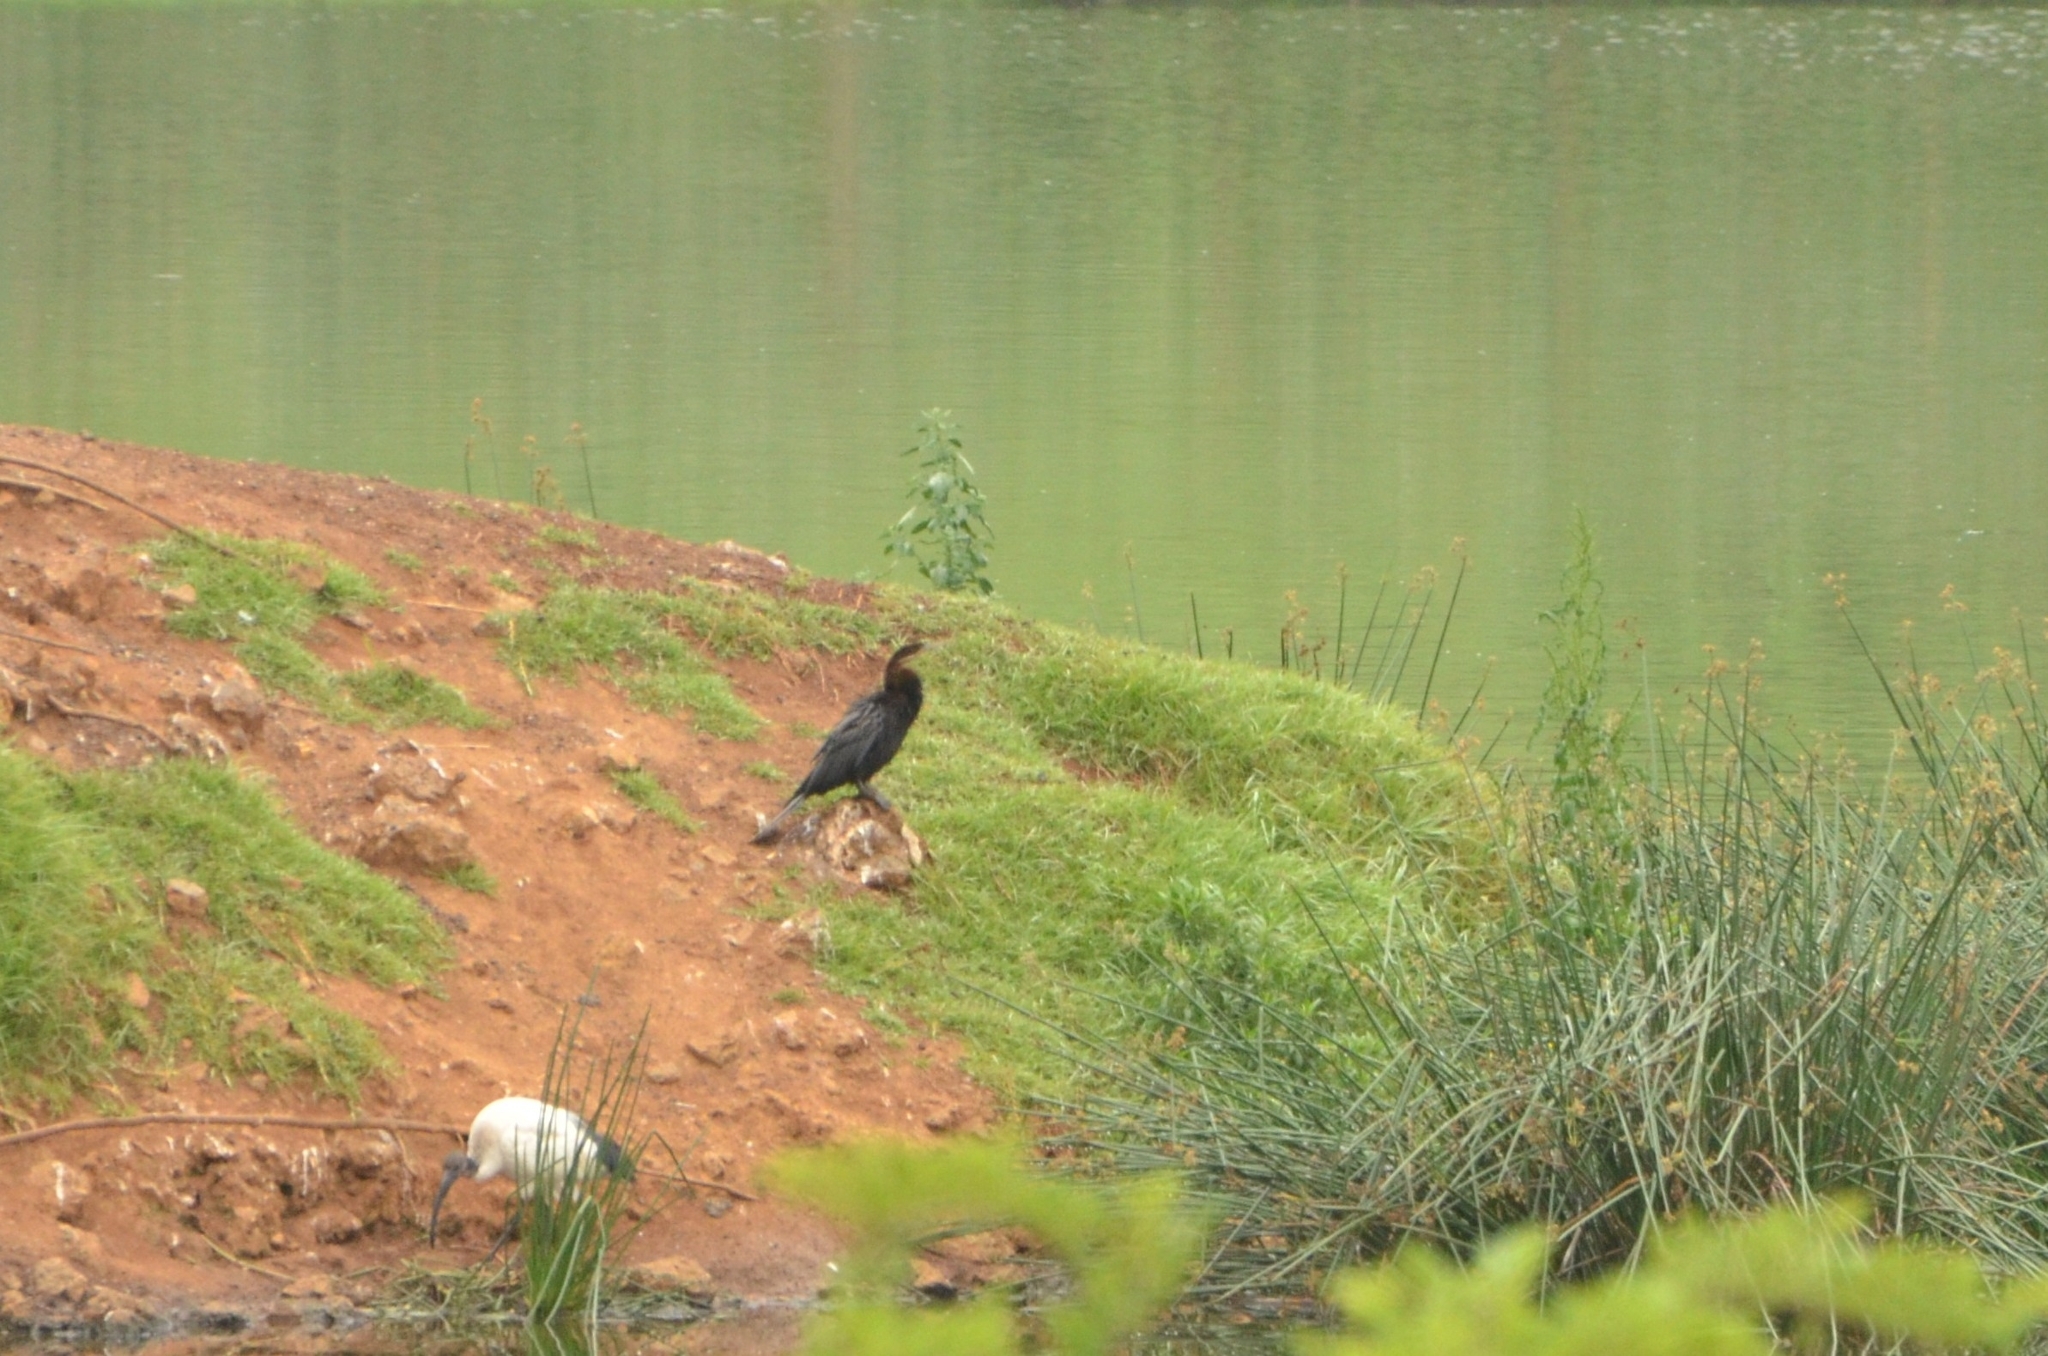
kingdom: Animalia
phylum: Chordata
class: Aves
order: Suliformes
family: Anhingidae
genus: Anhinga
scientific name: Anhinga rufa
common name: African darter
